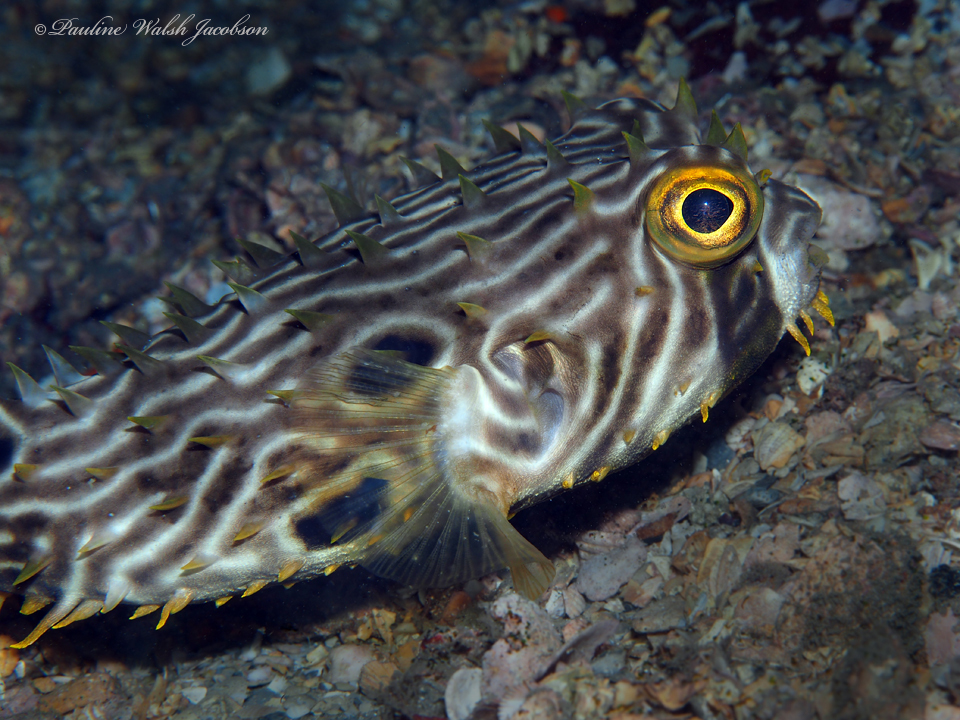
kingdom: Animalia
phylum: Chordata
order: Tetraodontiformes
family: Diodontidae
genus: Chilomycterus
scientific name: Chilomycterus schoepfii
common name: Striped burrfish
